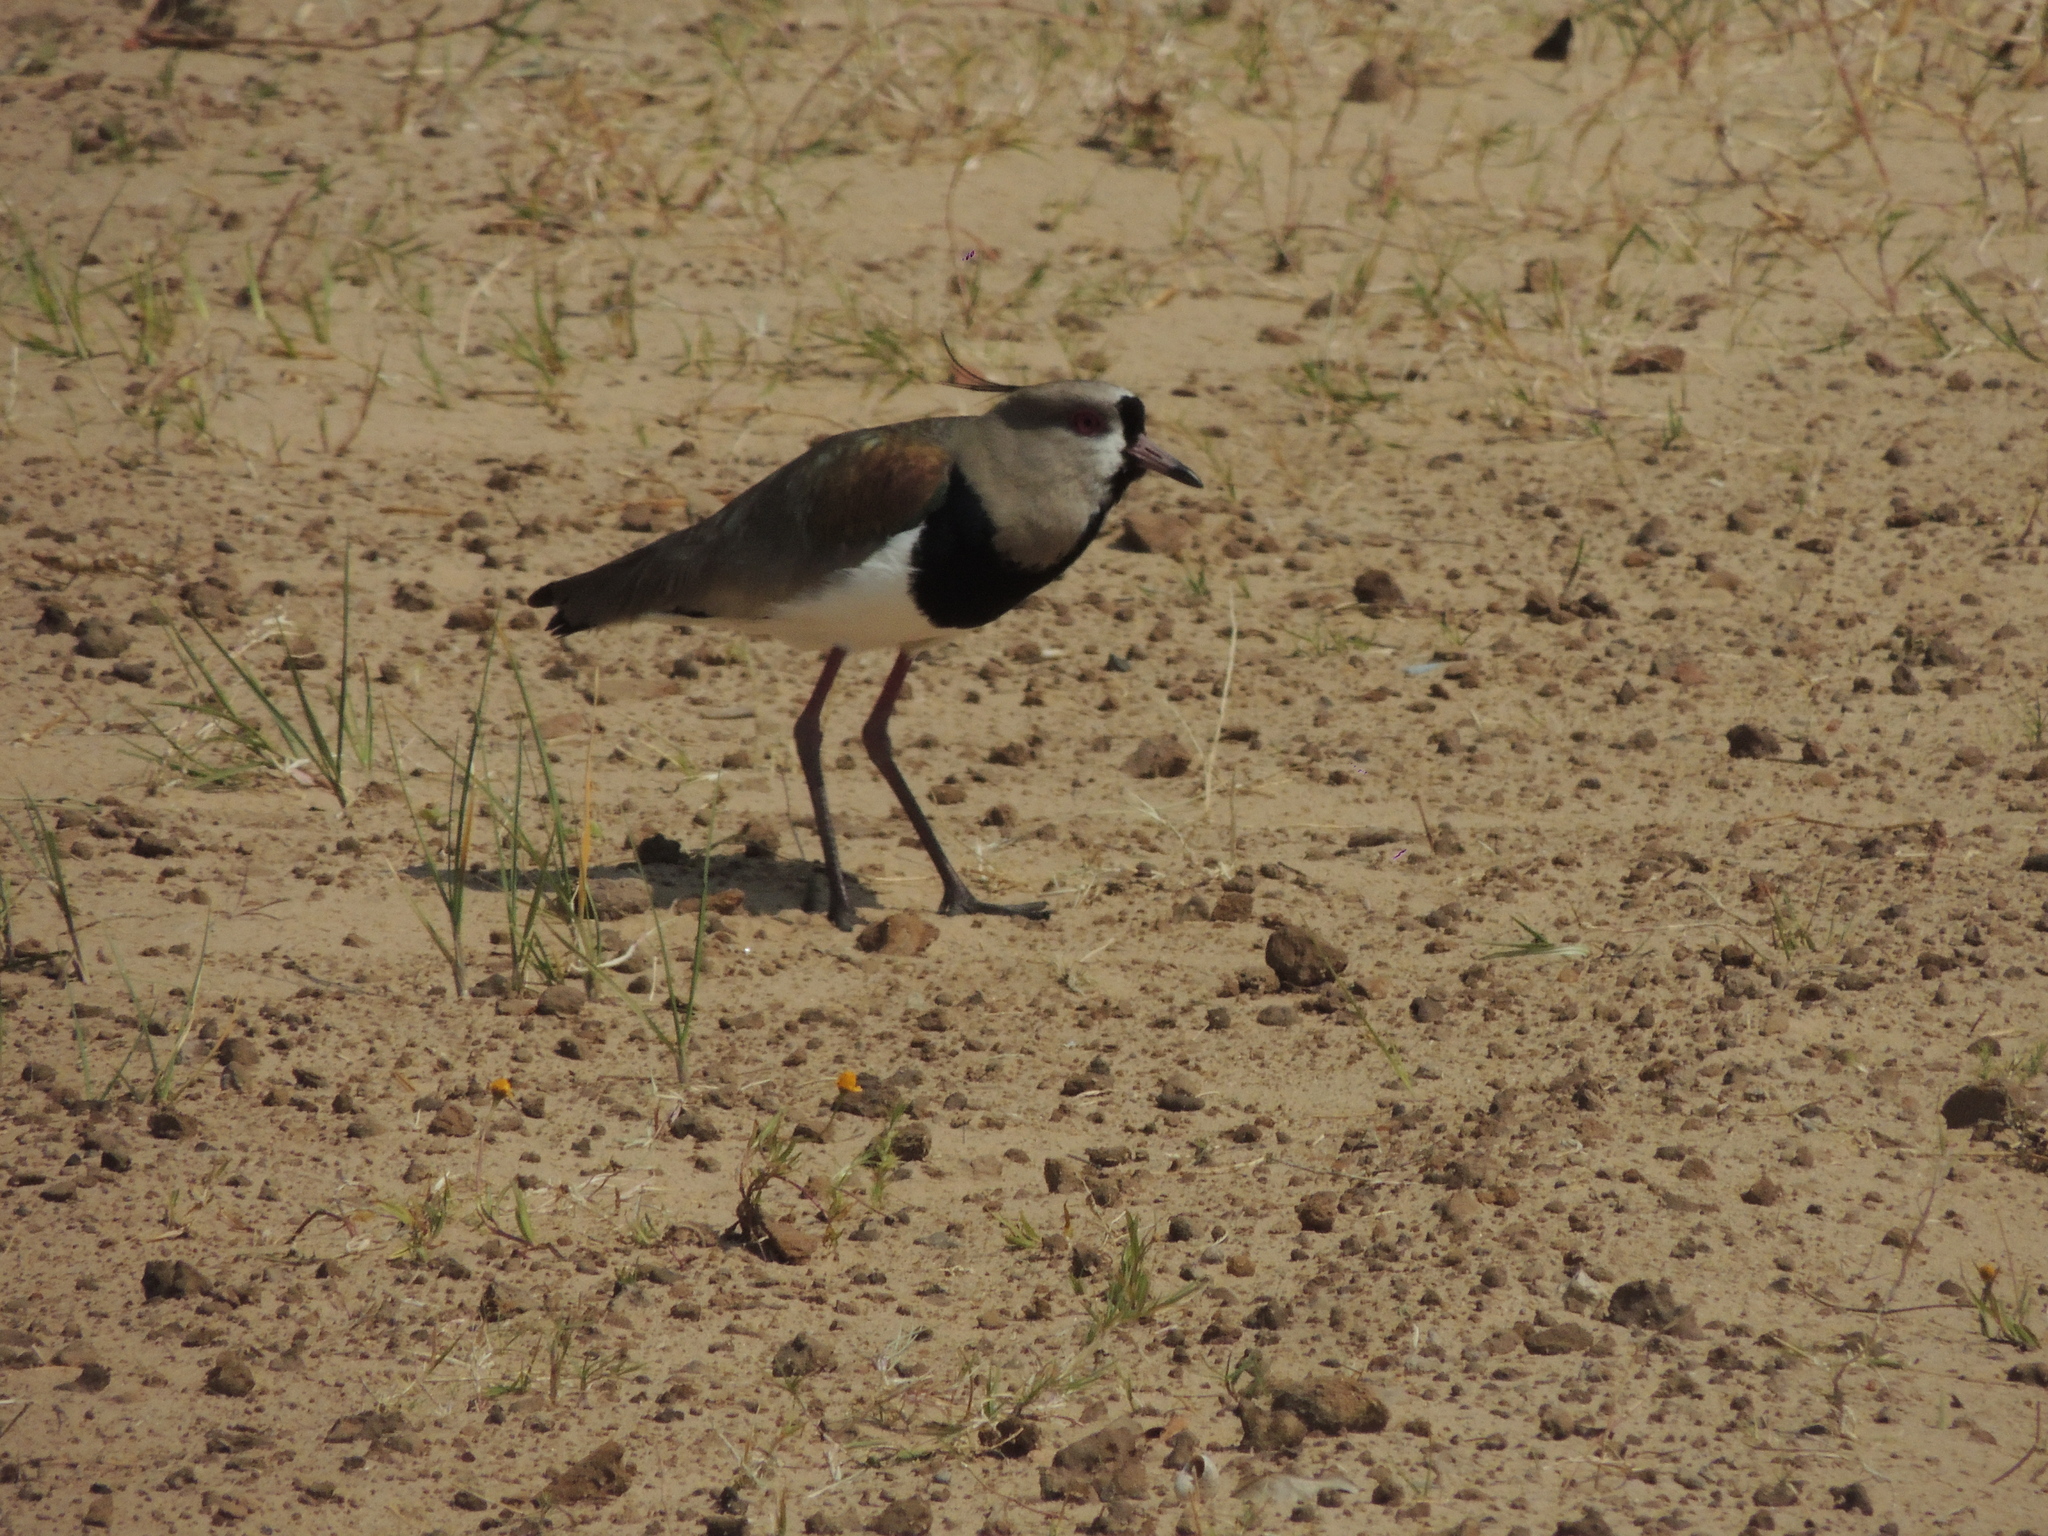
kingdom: Animalia
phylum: Chordata
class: Aves
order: Charadriiformes
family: Charadriidae
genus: Vanellus
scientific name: Vanellus chilensis
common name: Southern lapwing
